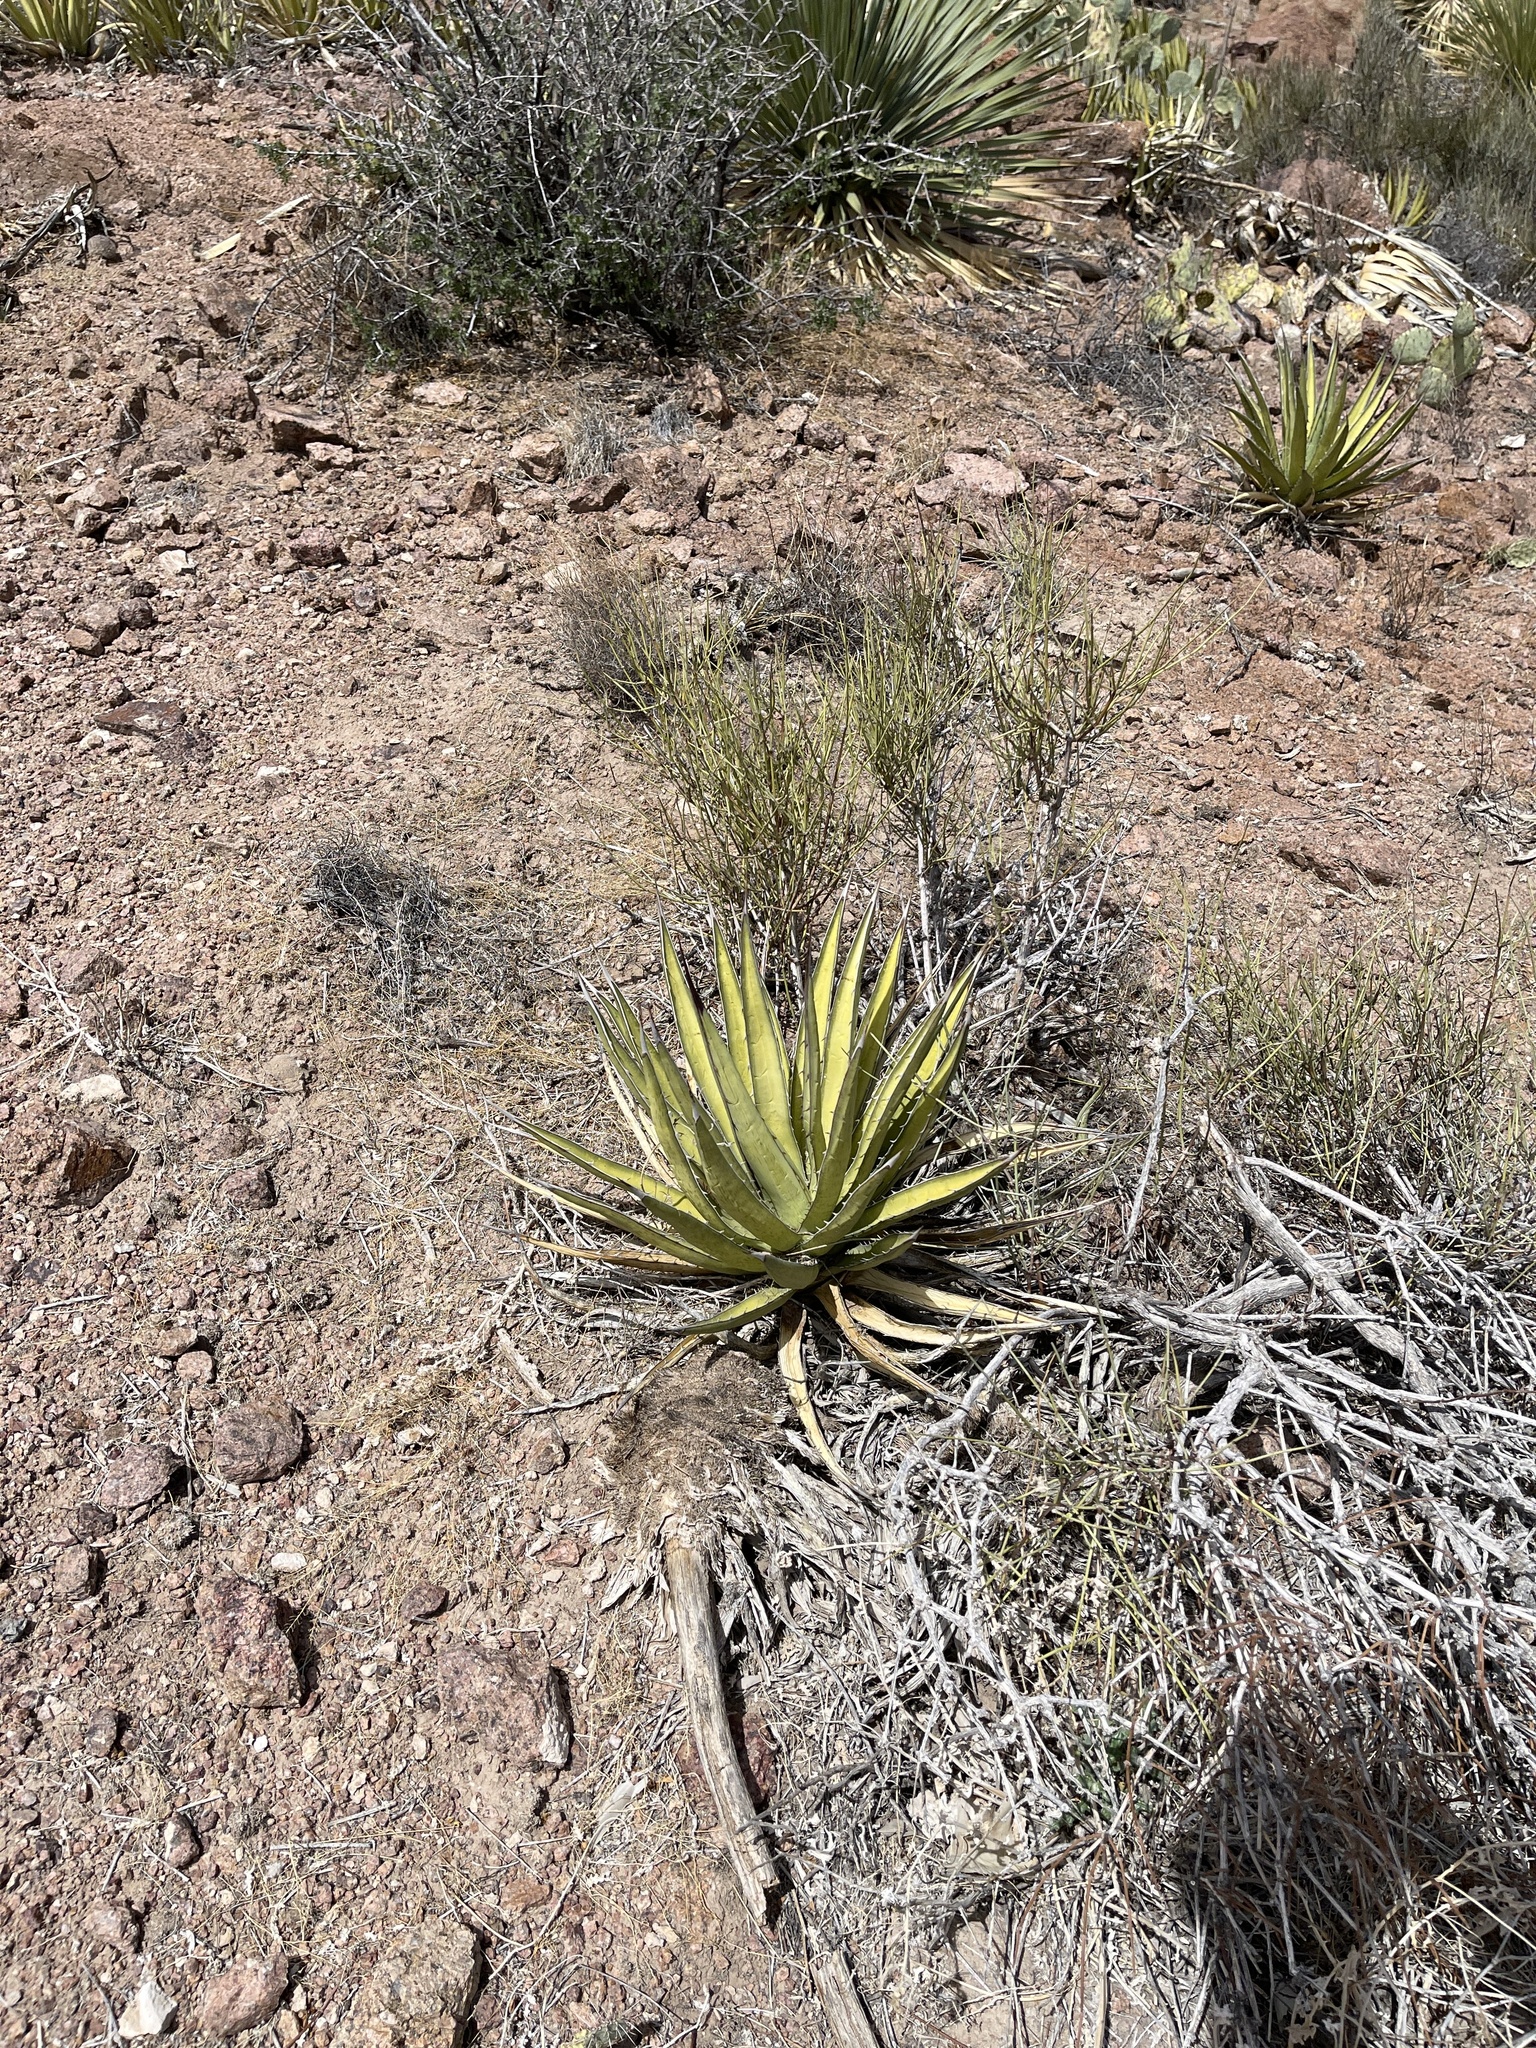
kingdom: Plantae
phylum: Tracheophyta
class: Liliopsida
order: Asparagales
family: Asparagaceae
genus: Agave
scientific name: Agave lechuguilla
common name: Lecheguilla agave
